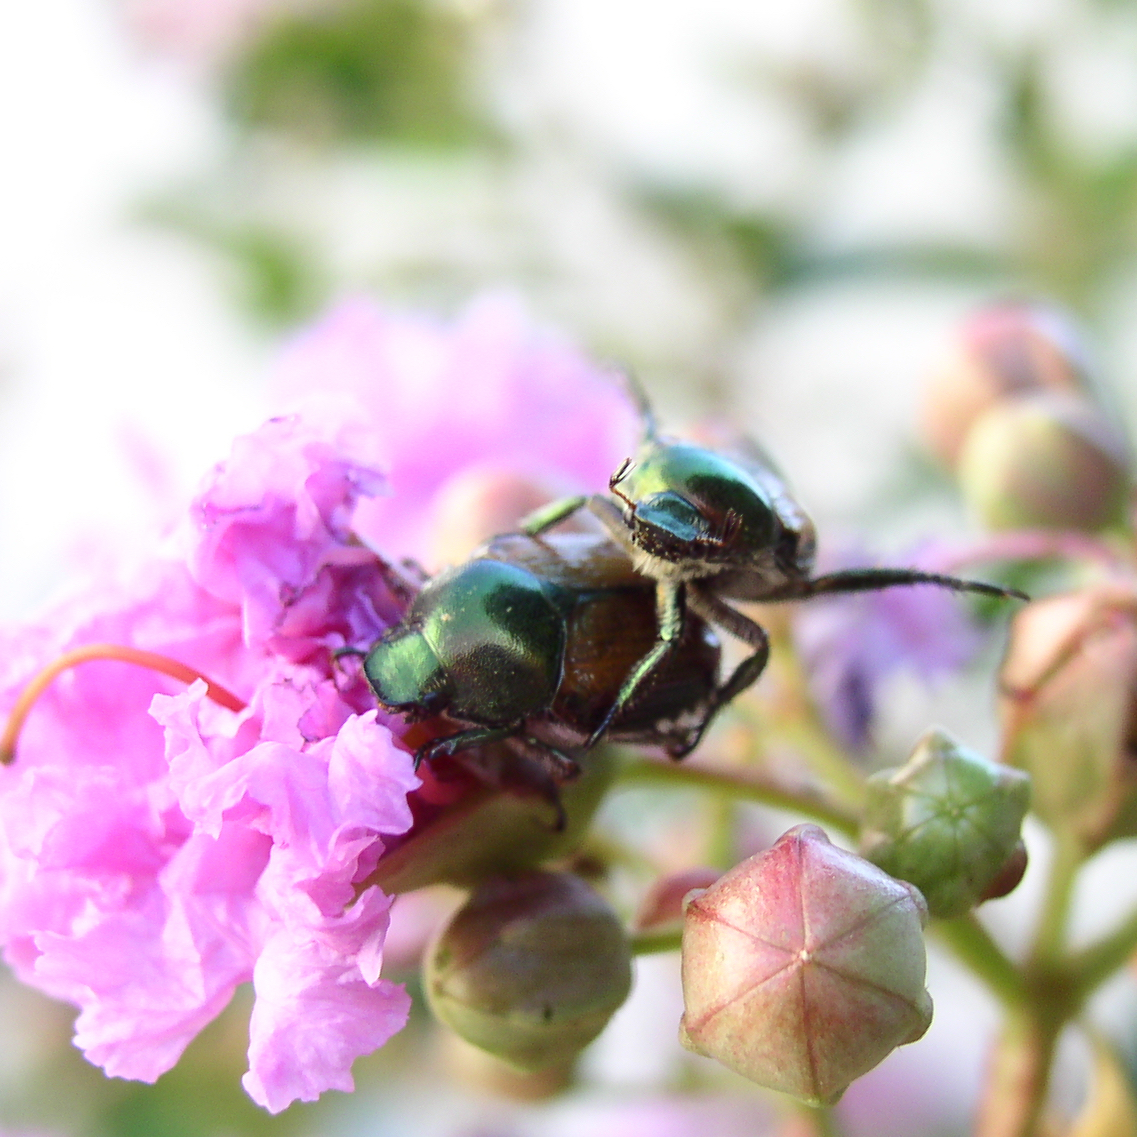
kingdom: Animalia
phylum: Arthropoda
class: Insecta
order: Coleoptera
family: Scarabaeidae
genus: Popillia
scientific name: Popillia japonica
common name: Japanese beetle
